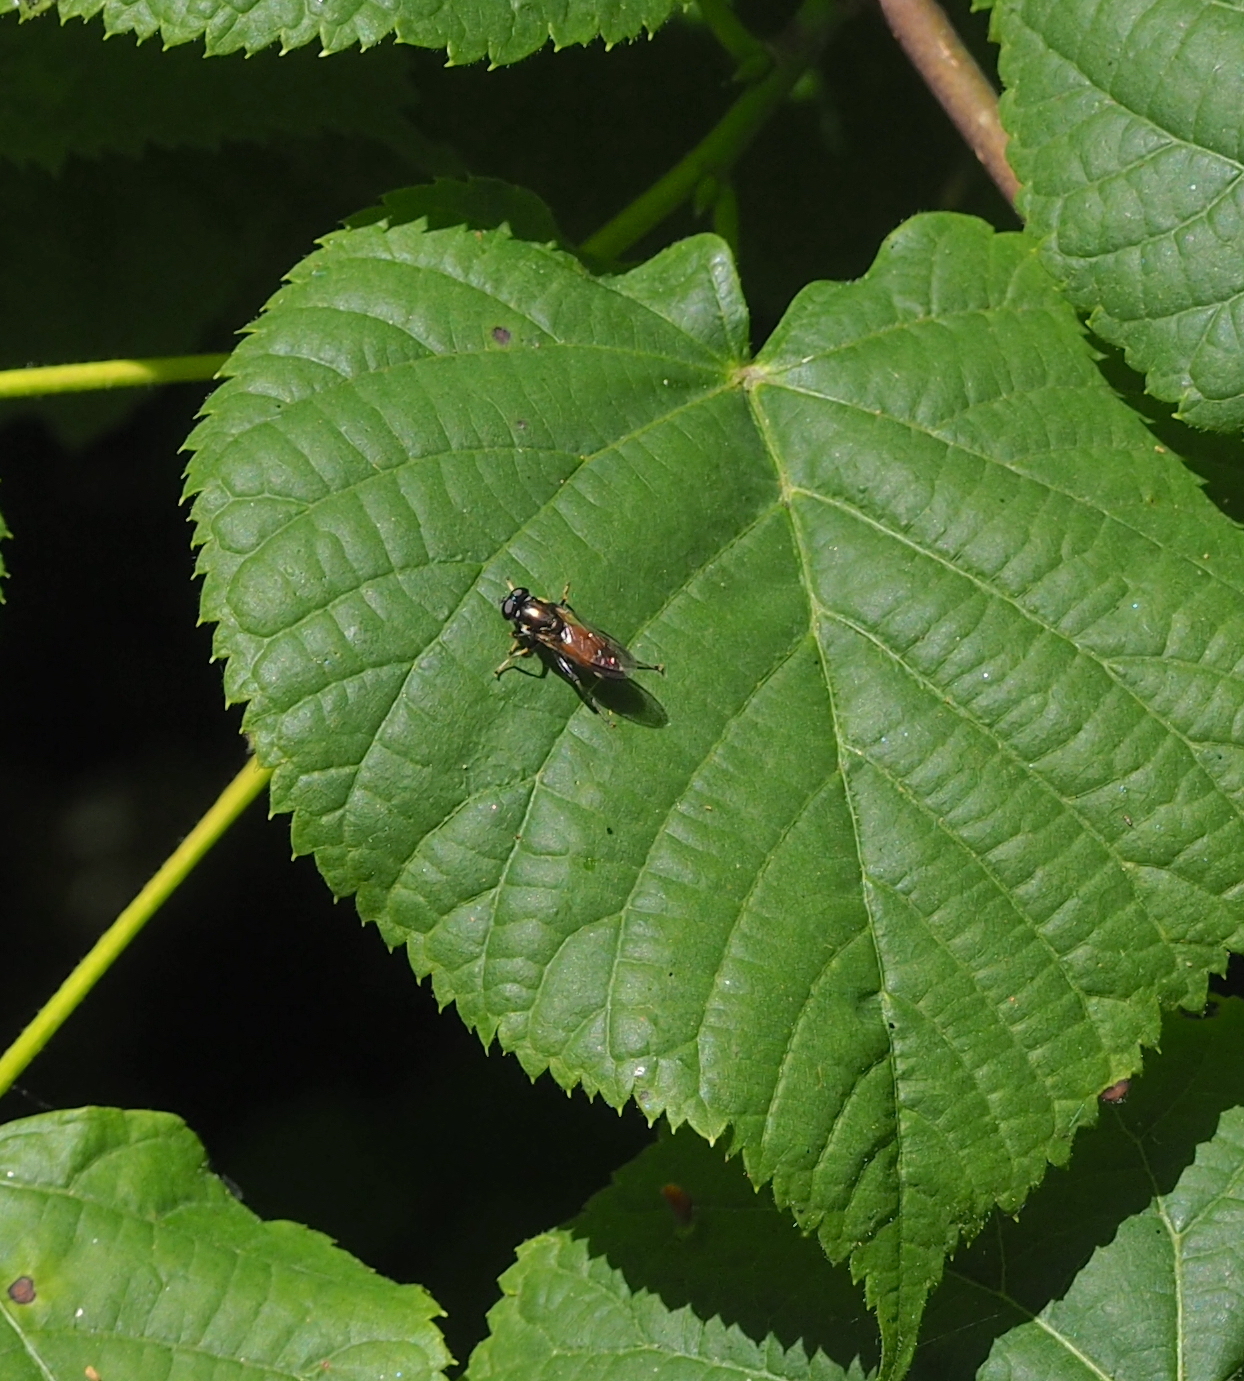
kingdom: Animalia
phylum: Arthropoda
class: Insecta
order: Diptera
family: Syrphidae
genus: Xylota
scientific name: Xylota segnis
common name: Brown-toed forest fly
